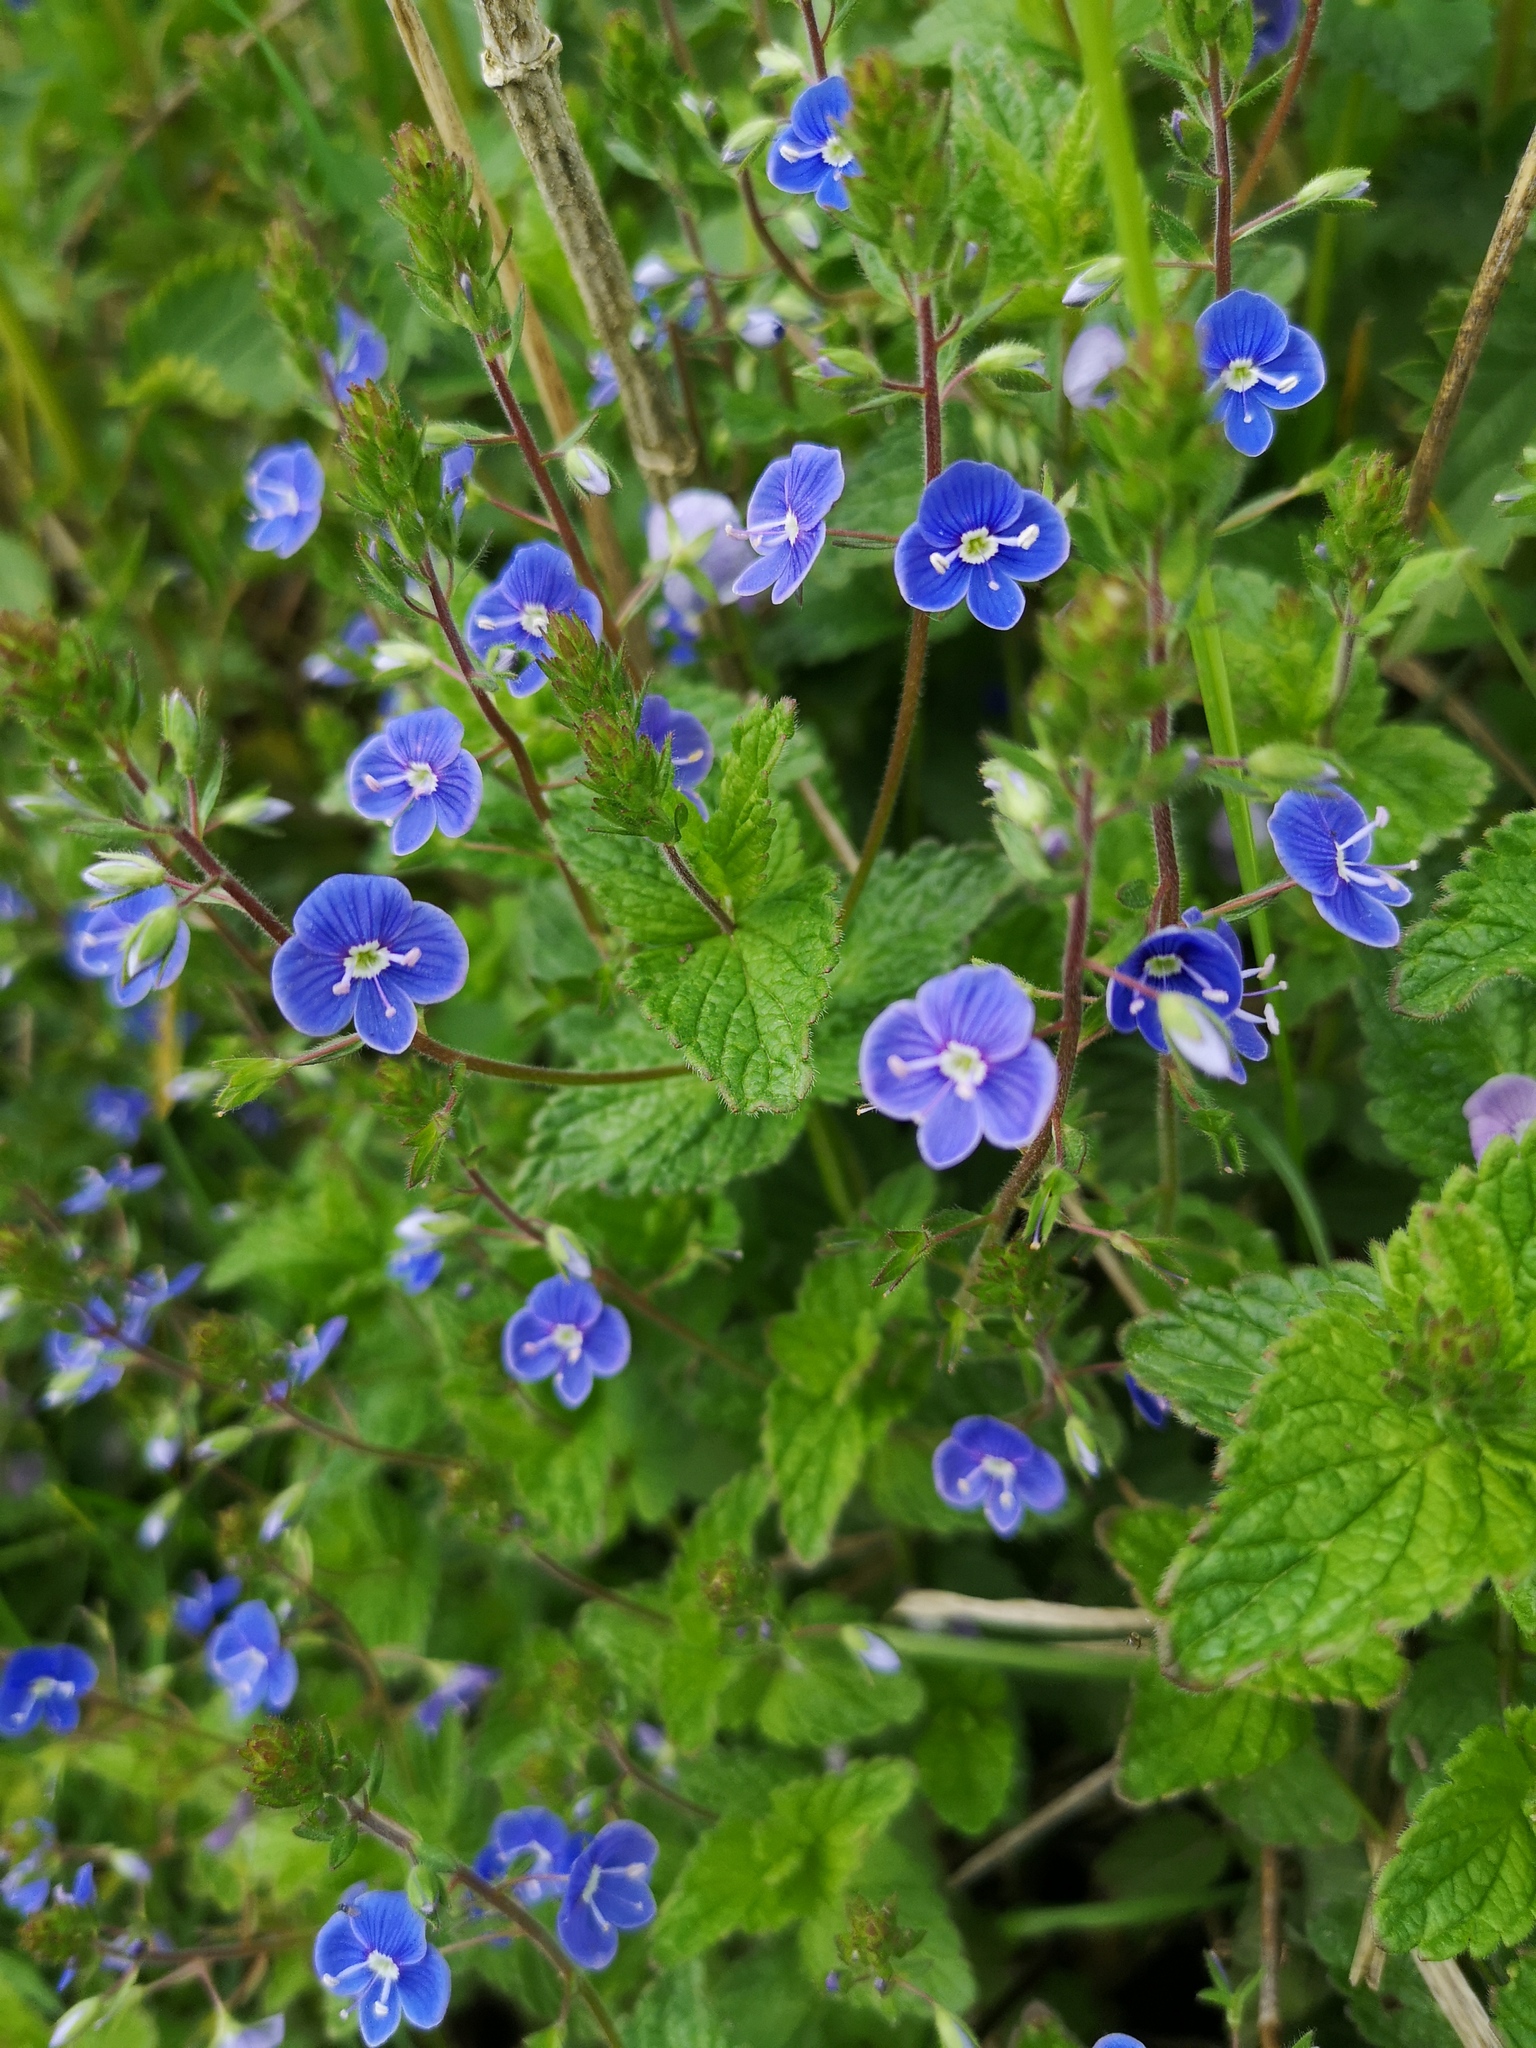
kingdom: Plantae
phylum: Tracheophyta
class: Magnoliopsida
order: Lamiales
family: Plantaginaceae
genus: Veronica
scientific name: Veronica chamaedrys
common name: Germander speedwell
